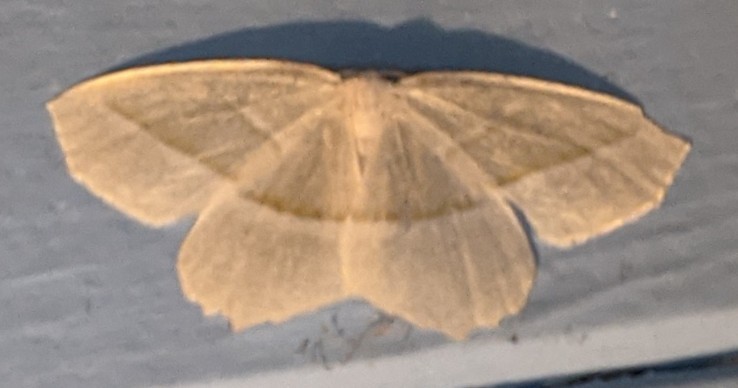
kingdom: Animalia
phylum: Arthropoda
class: Insecta
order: Lepidoptera
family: Geometridae
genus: Campaea
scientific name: Campaea perlata
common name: Fringed looper
